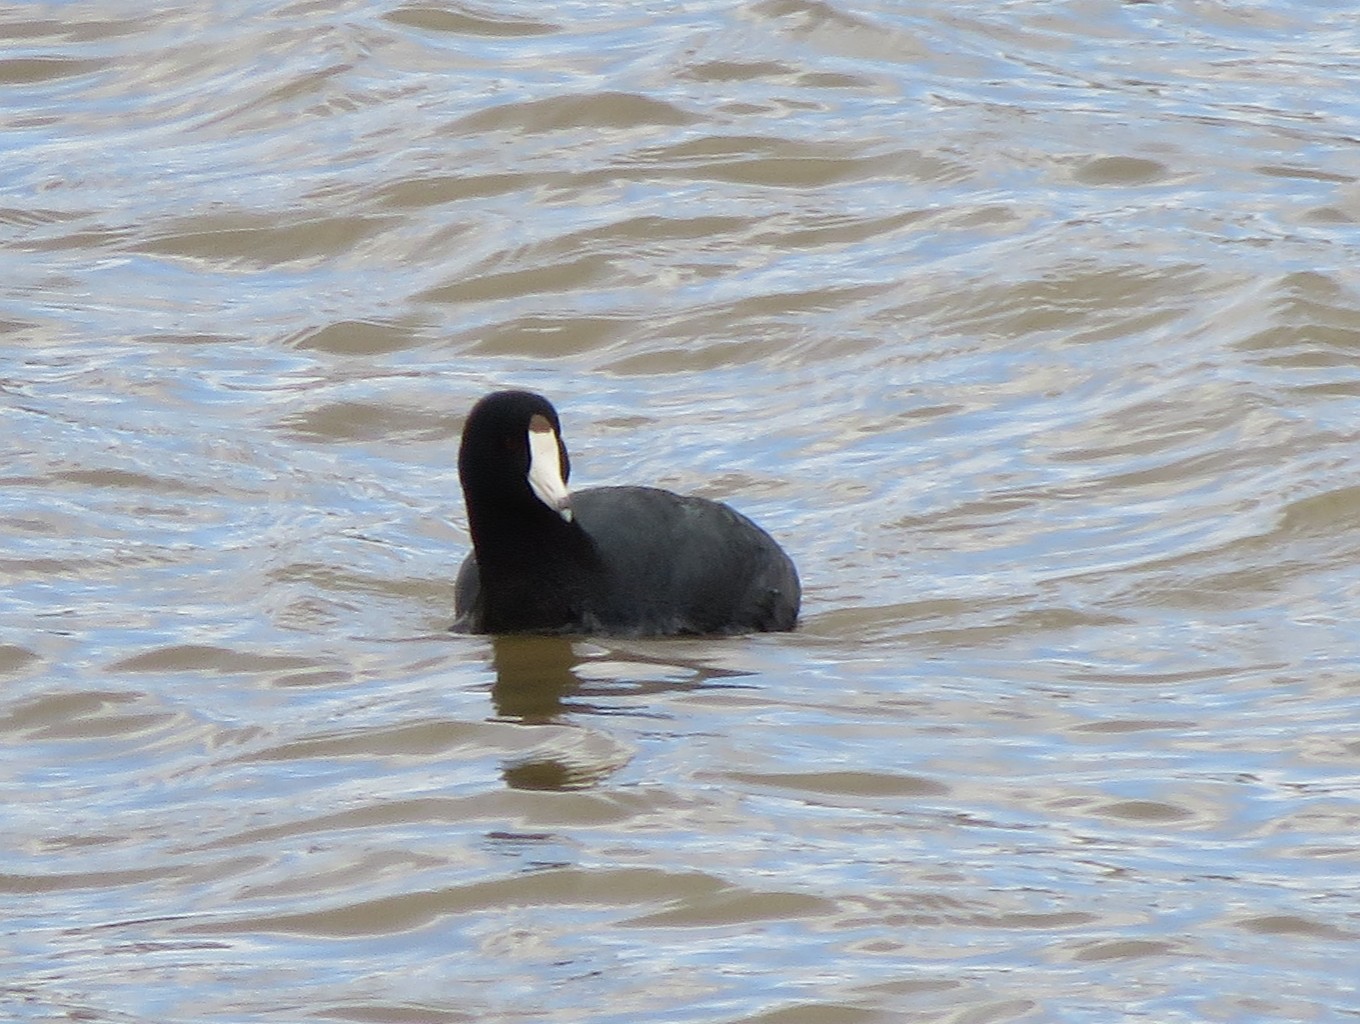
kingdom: Animalia
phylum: Chordata
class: Aves
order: Gruiformes
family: Rallidae
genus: Fulica
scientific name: Fulica americana
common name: American coot
